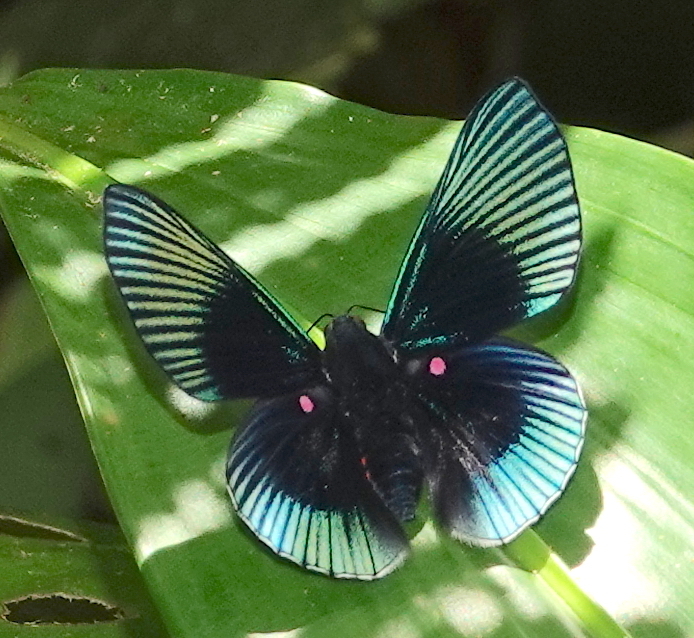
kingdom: Animalia
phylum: Arthropoda
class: Insecta
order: Lepidoptera
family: Riodinidae
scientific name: Riodinidae
